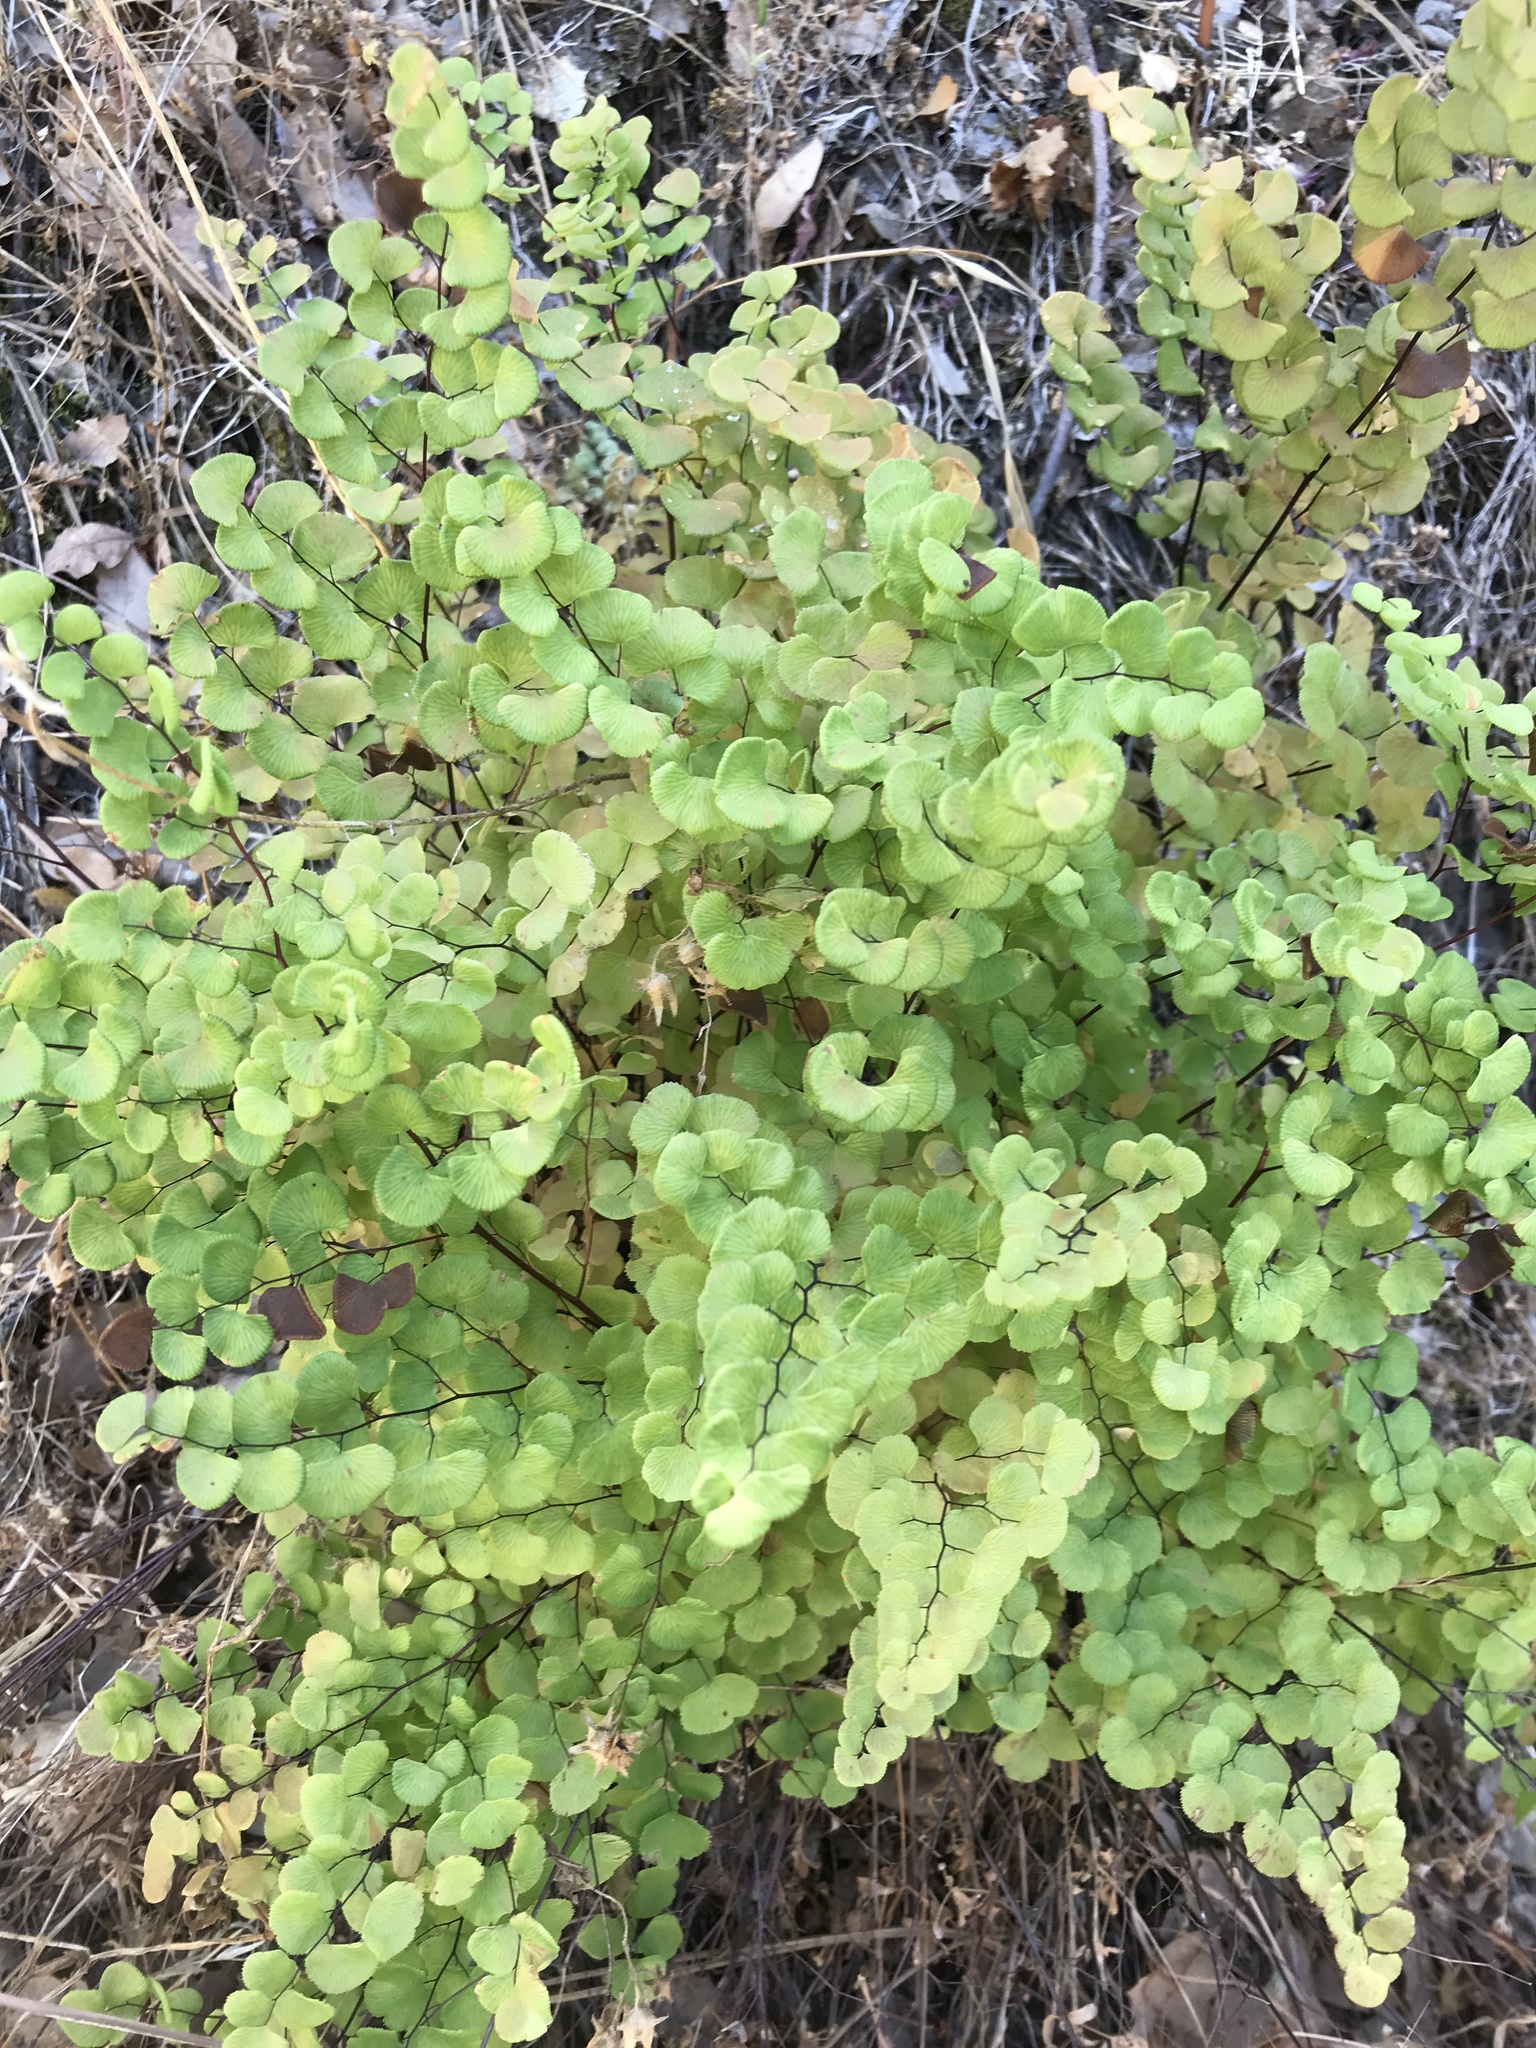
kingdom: Plantae
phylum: Tracheophyta
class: Polypodiopsida
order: Polypodiales
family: Pteridaceae
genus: Adiantum
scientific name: Adiantum jordanii
